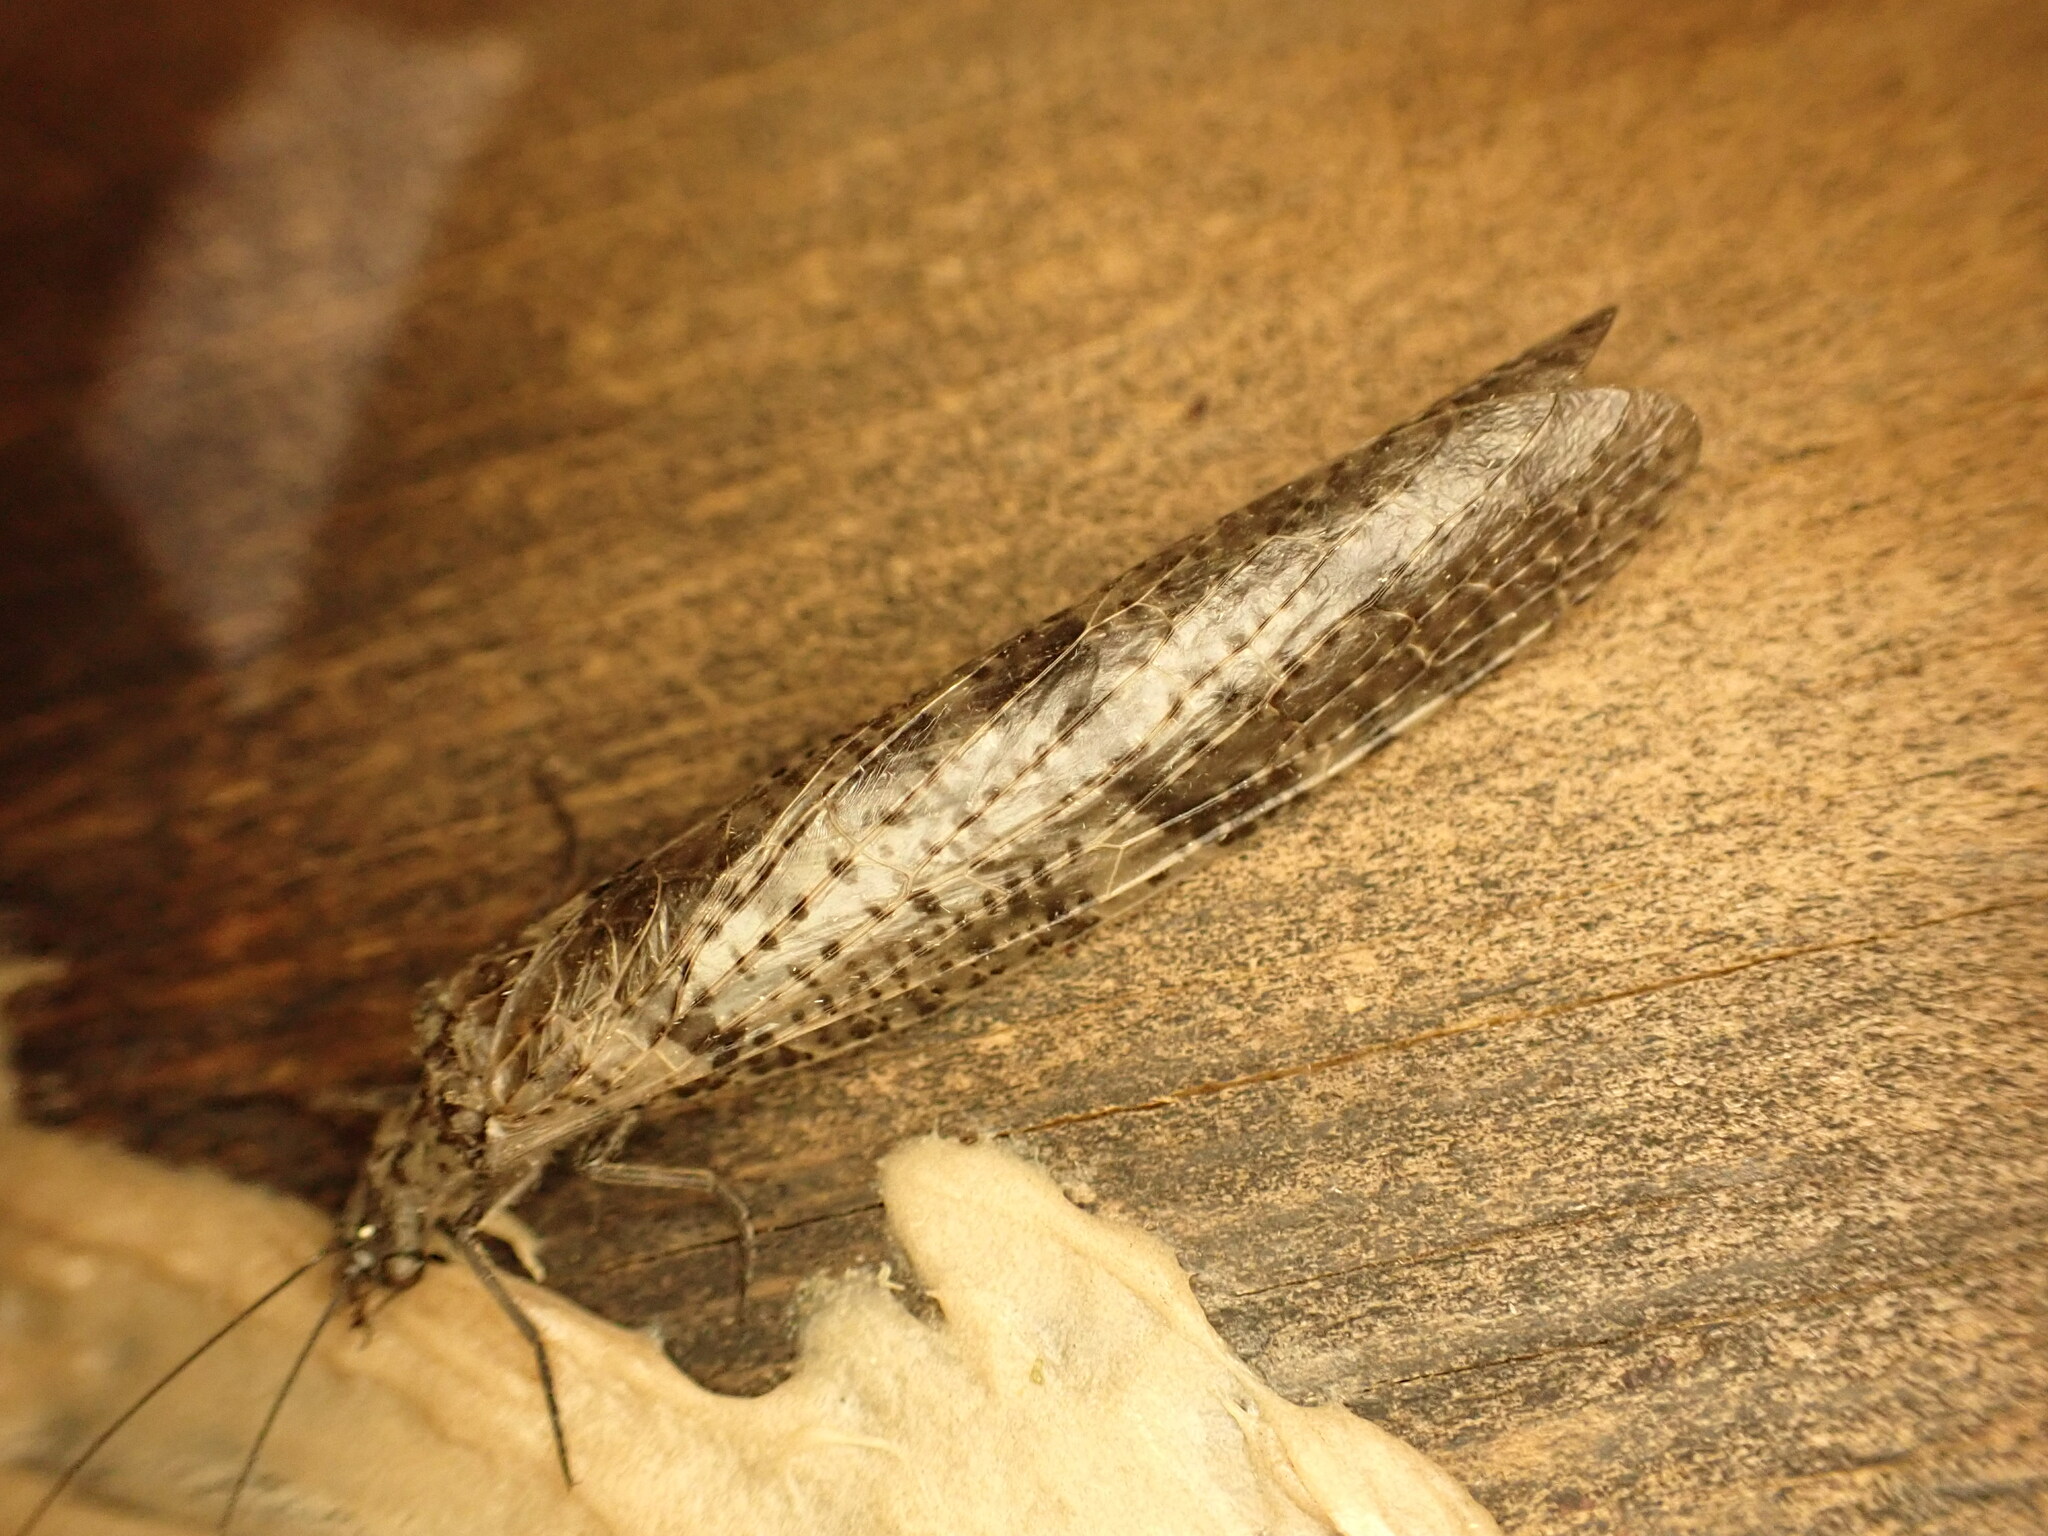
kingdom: Animalia
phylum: Arthropoda
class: Insecta
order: Megaloptera
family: Corydalidae
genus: Archichauliodes
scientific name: Archichauliodes diversus
